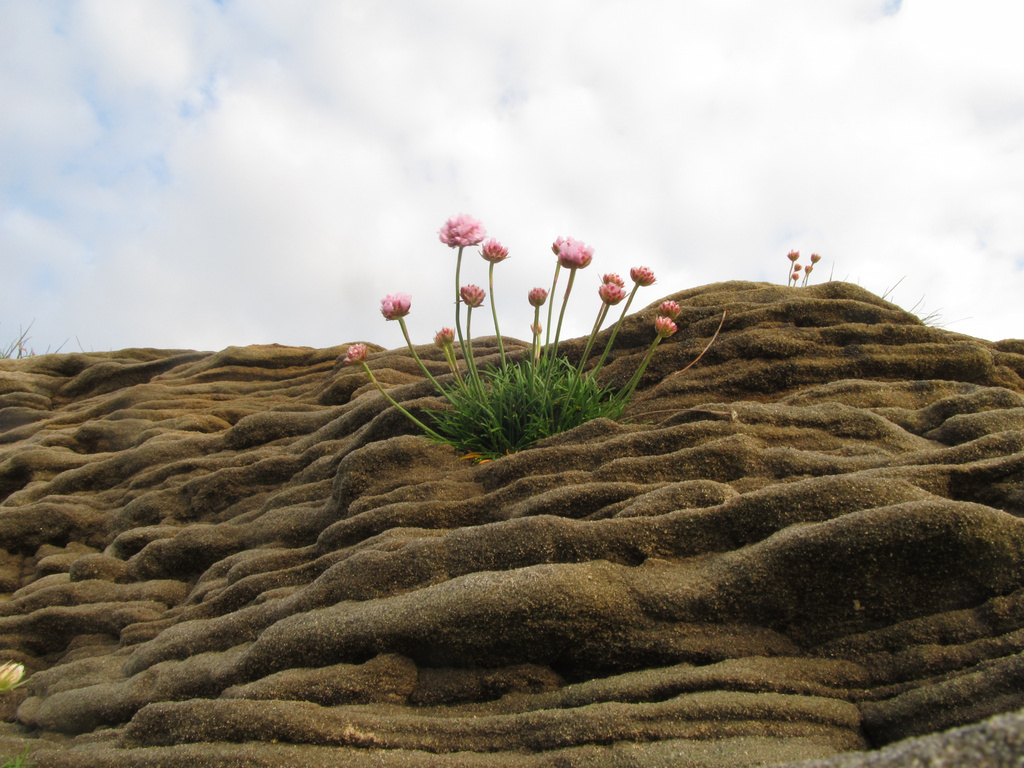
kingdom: Plantae
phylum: Tracheophyta
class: Magnoliopsida
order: Caryophyllales
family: Plumbaginaceae
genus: Armeria
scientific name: Armeria maritima
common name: Thrift
